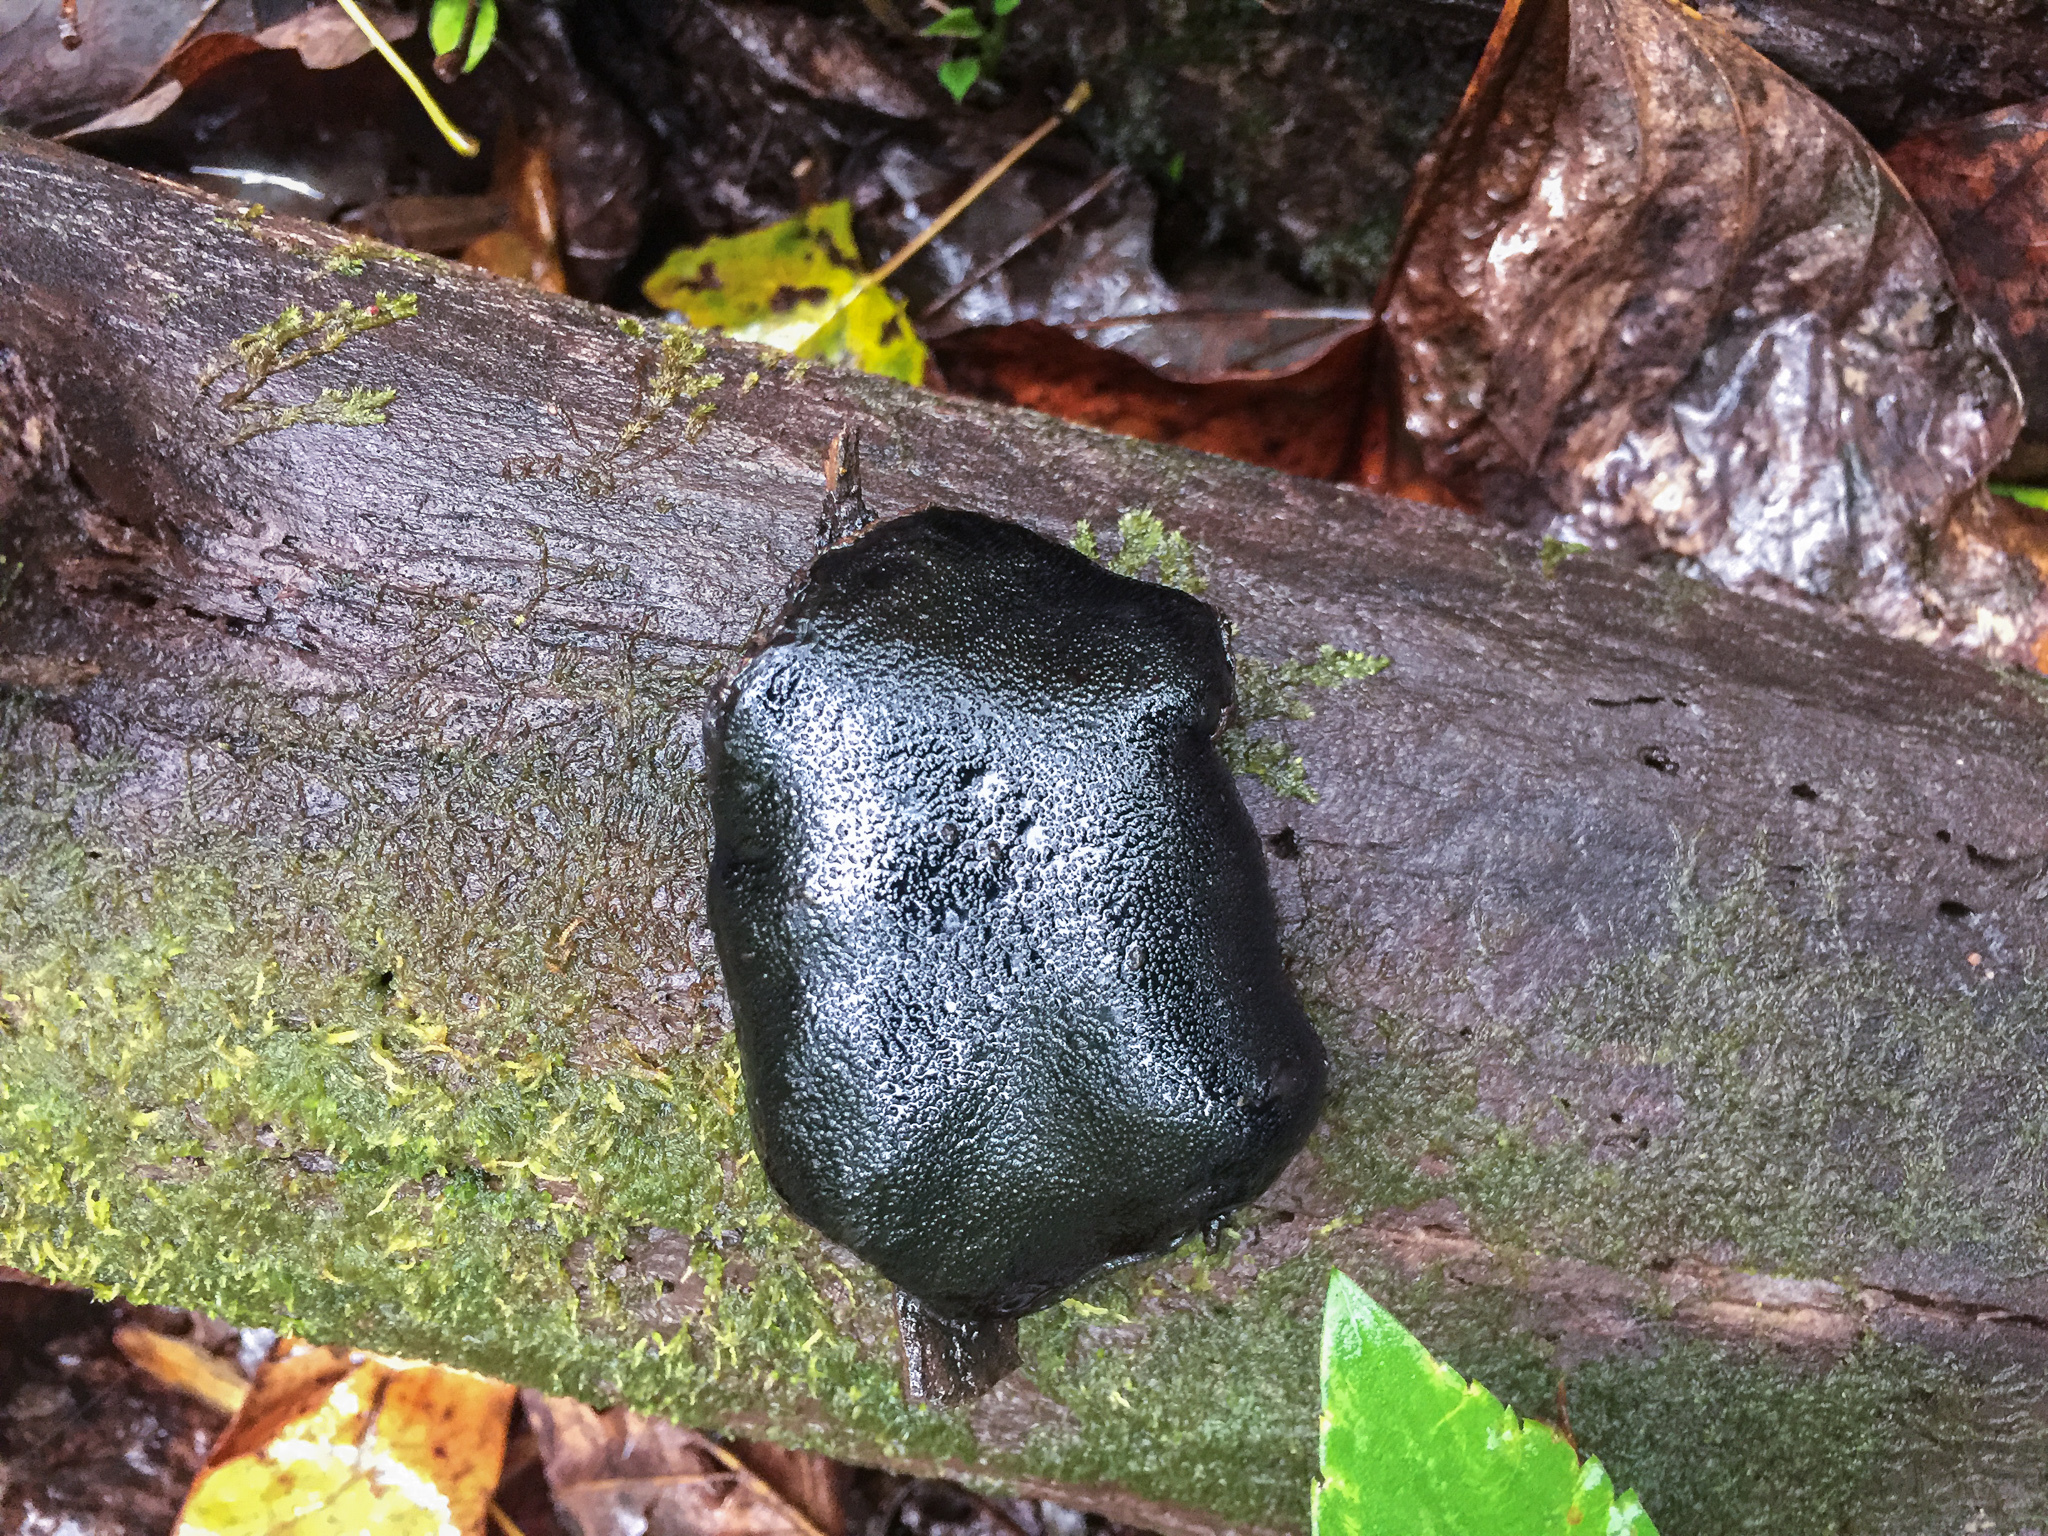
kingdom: Fungi
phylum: Ascomycota
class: Sordariomycetes
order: Boliniales
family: Boliniaceae
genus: Camarops
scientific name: Camarops petersii
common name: Dog's nose fungus
